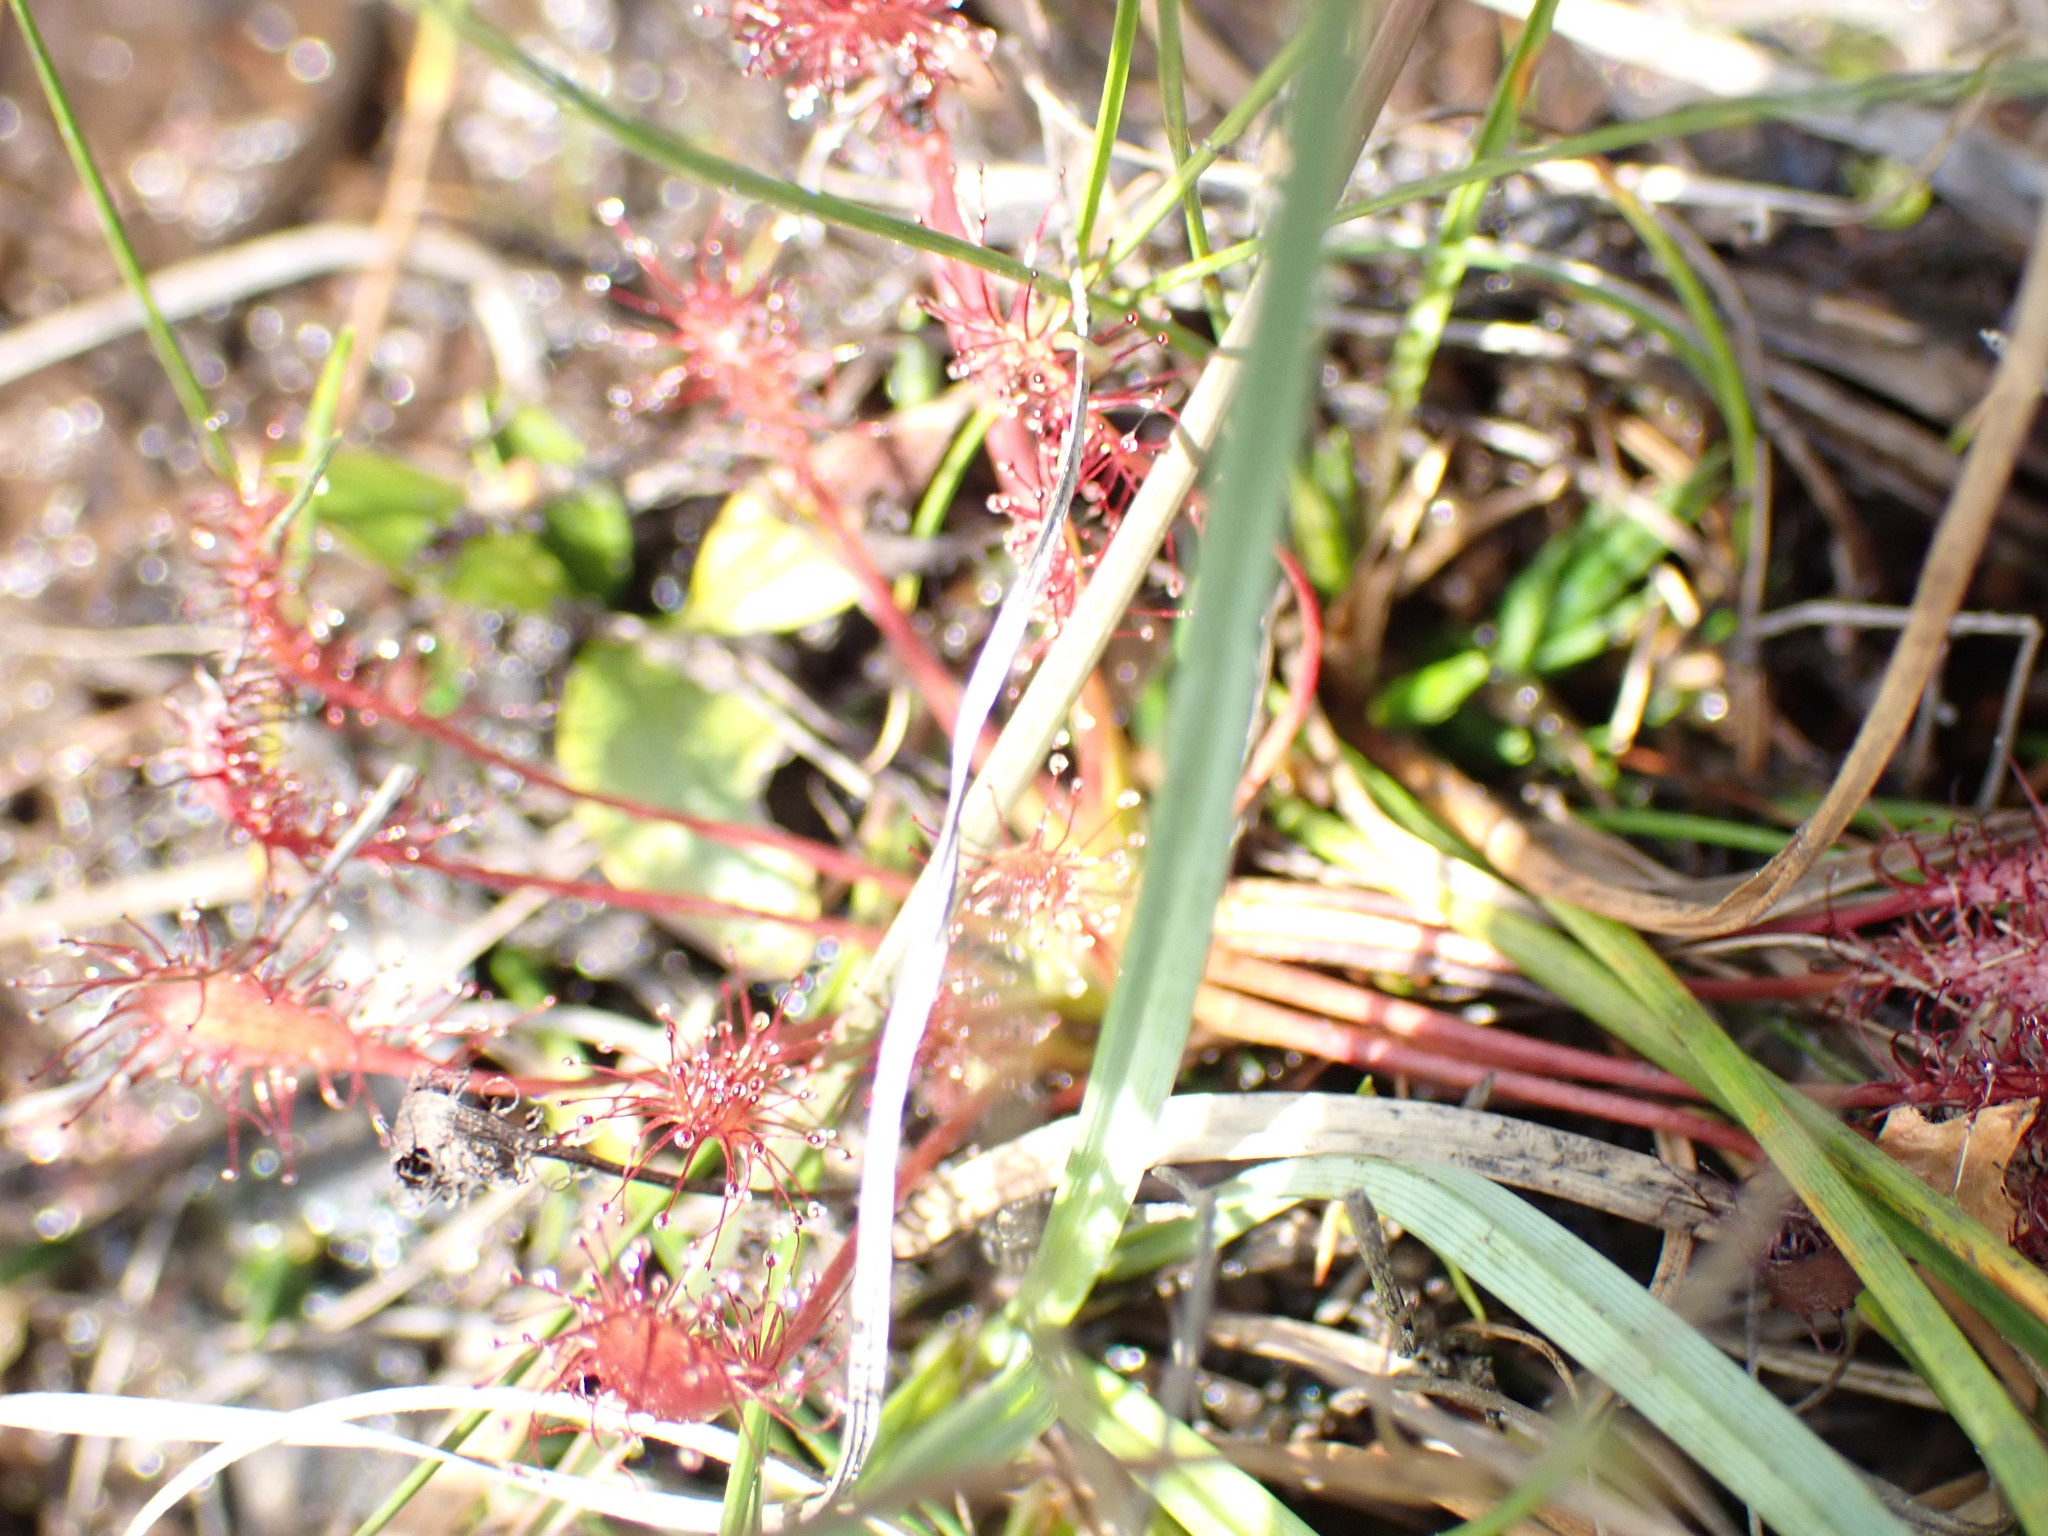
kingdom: Plantae
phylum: Tracheophyta
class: Magnoliopsida
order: Caryophyllales
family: Droseraceae
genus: Drosera
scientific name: Drosera intermedia
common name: Oblong-leaved sundew
